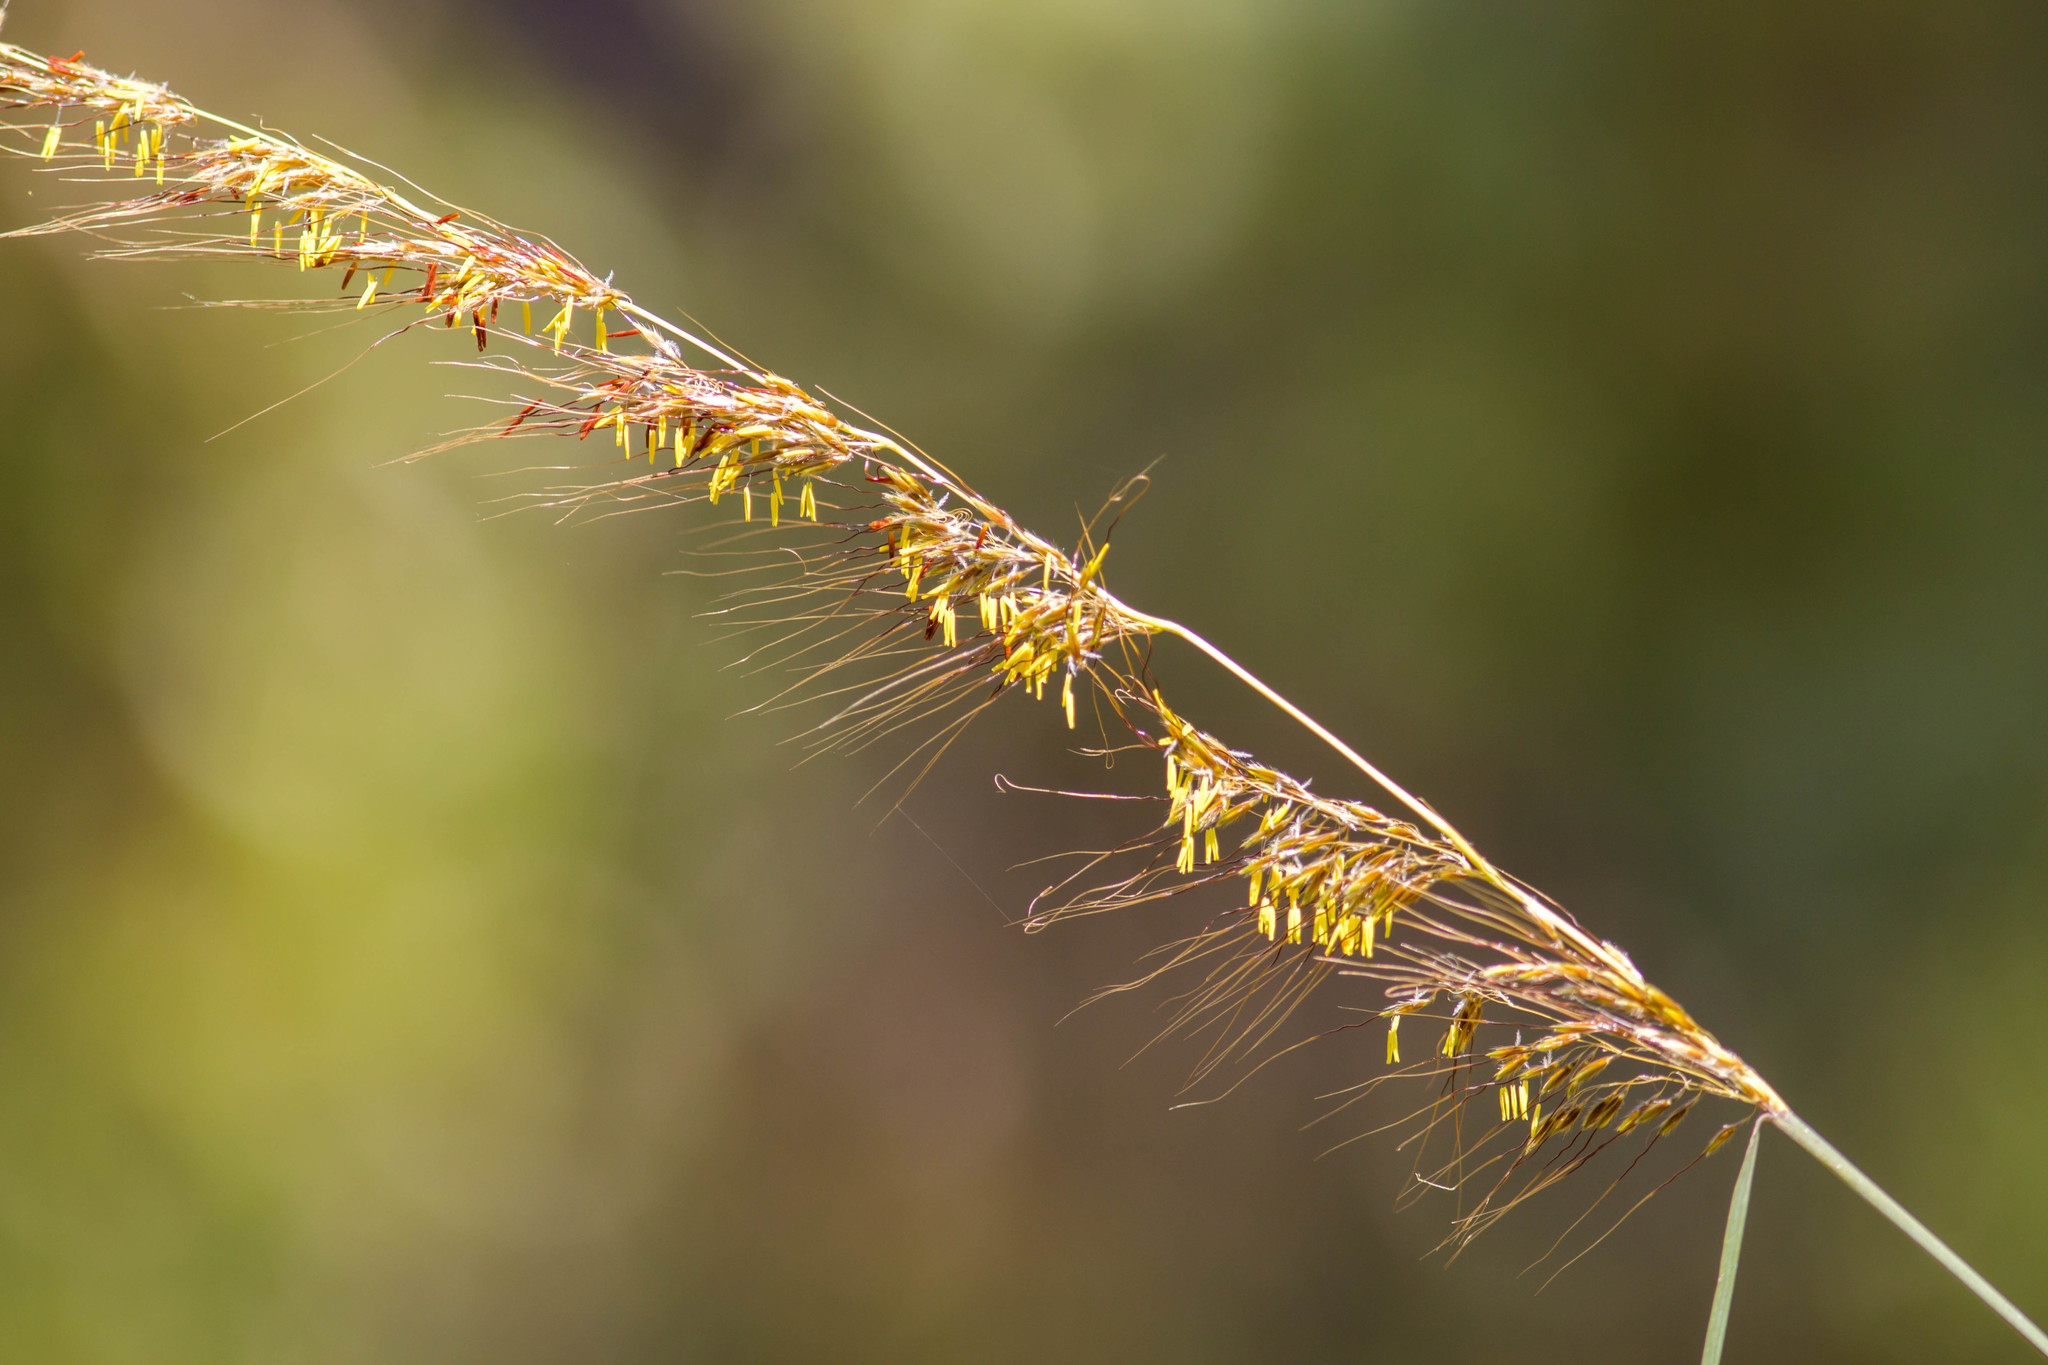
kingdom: Plantae
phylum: Tracheophyta
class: Liliopsida
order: Poales
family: Poaceae
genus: Sorghastrum
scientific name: Sorghastrum secundum
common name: Lopsided indian grass
